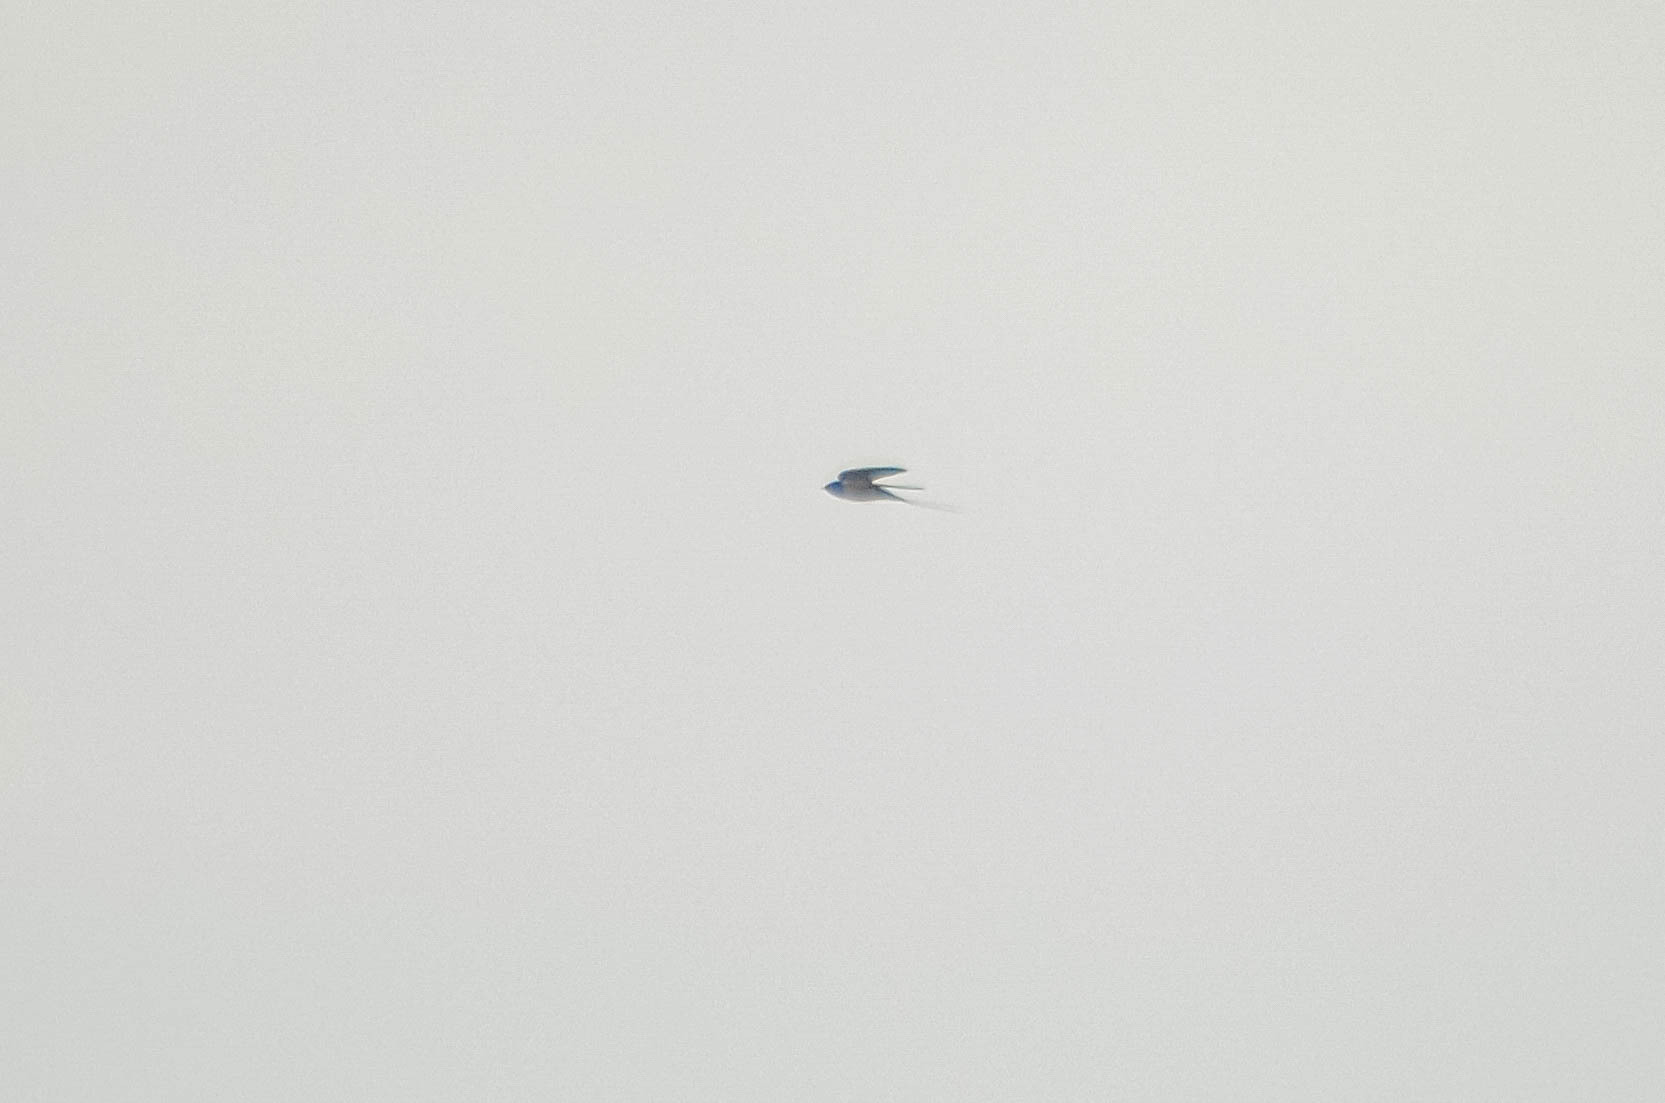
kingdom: Animalia
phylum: Chordata
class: Aves
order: Passeriformes
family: Hirundinidae
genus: Hirundo
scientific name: Hirundo rustica
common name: Barn swallow
